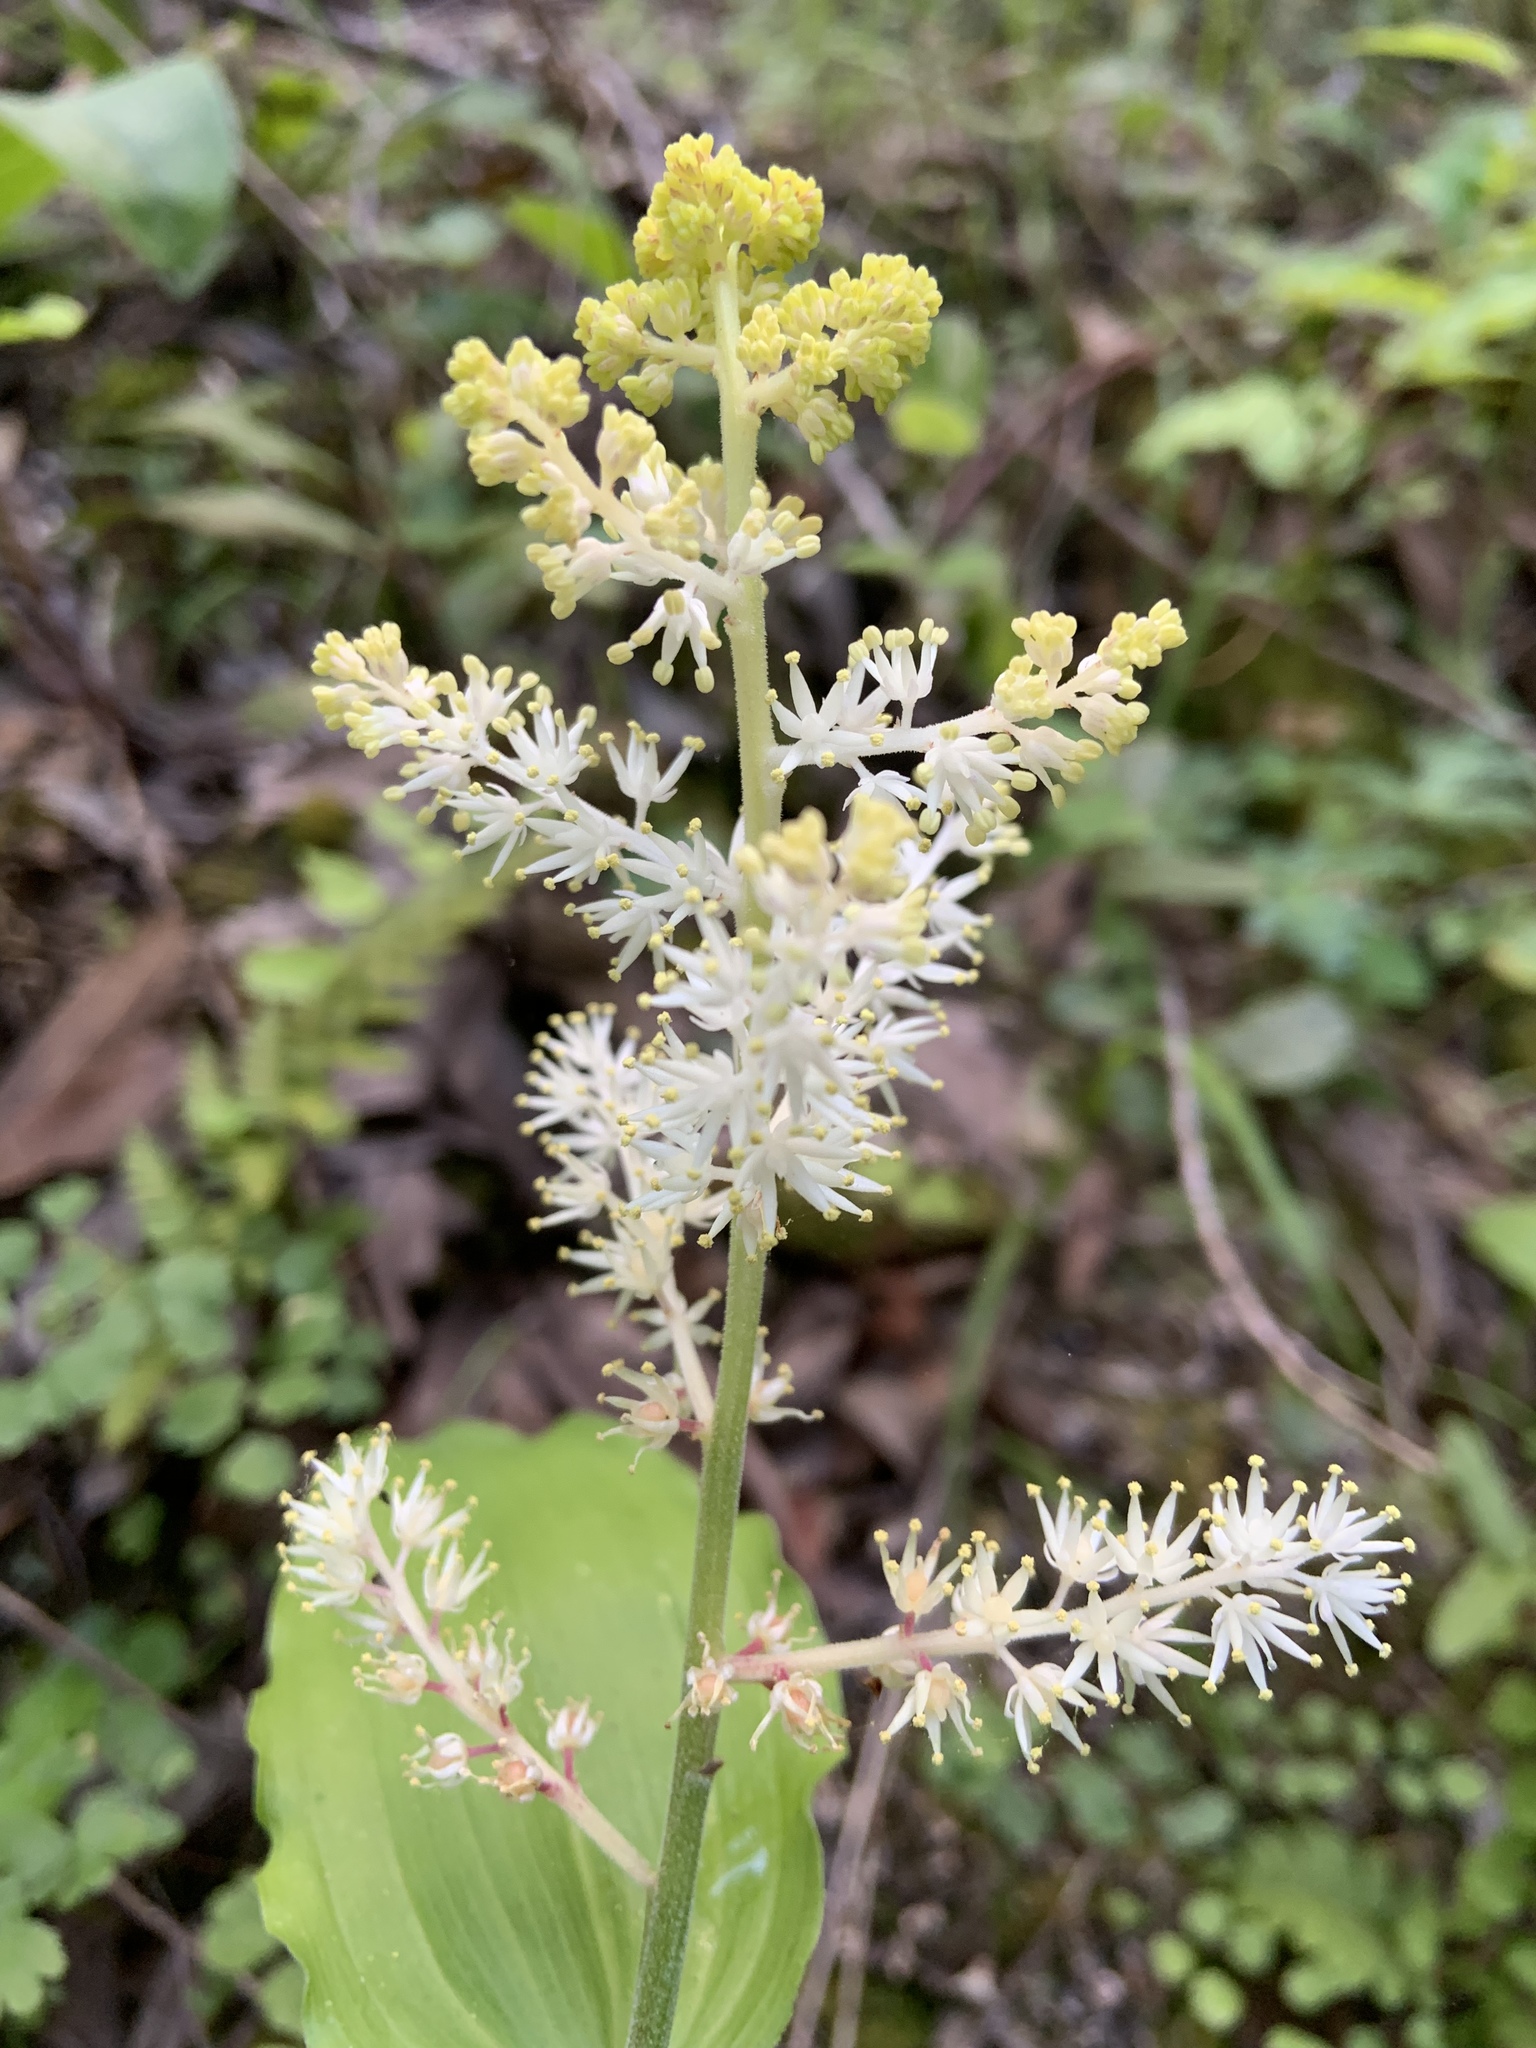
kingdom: Plantae
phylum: Tracheophyta
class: Liliopsida
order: Asparagales
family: Asparagaceae
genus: Maianthemum
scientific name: Maianthemum racemosum
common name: False spikenard
